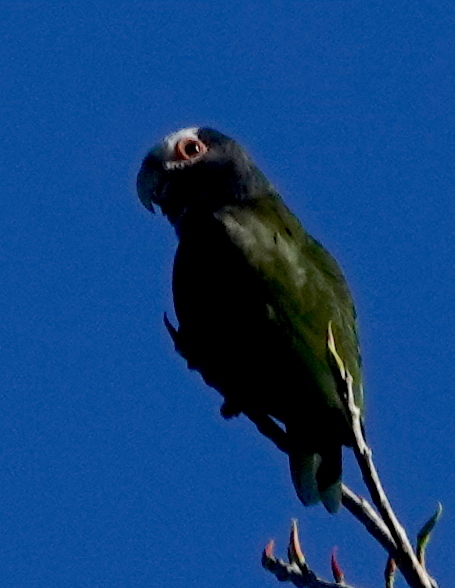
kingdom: Animalia
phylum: Chordata
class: Aves
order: Psittaciformes
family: Psittacidae
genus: Pionus
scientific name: Pionus senilis
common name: White-crowned parrot
